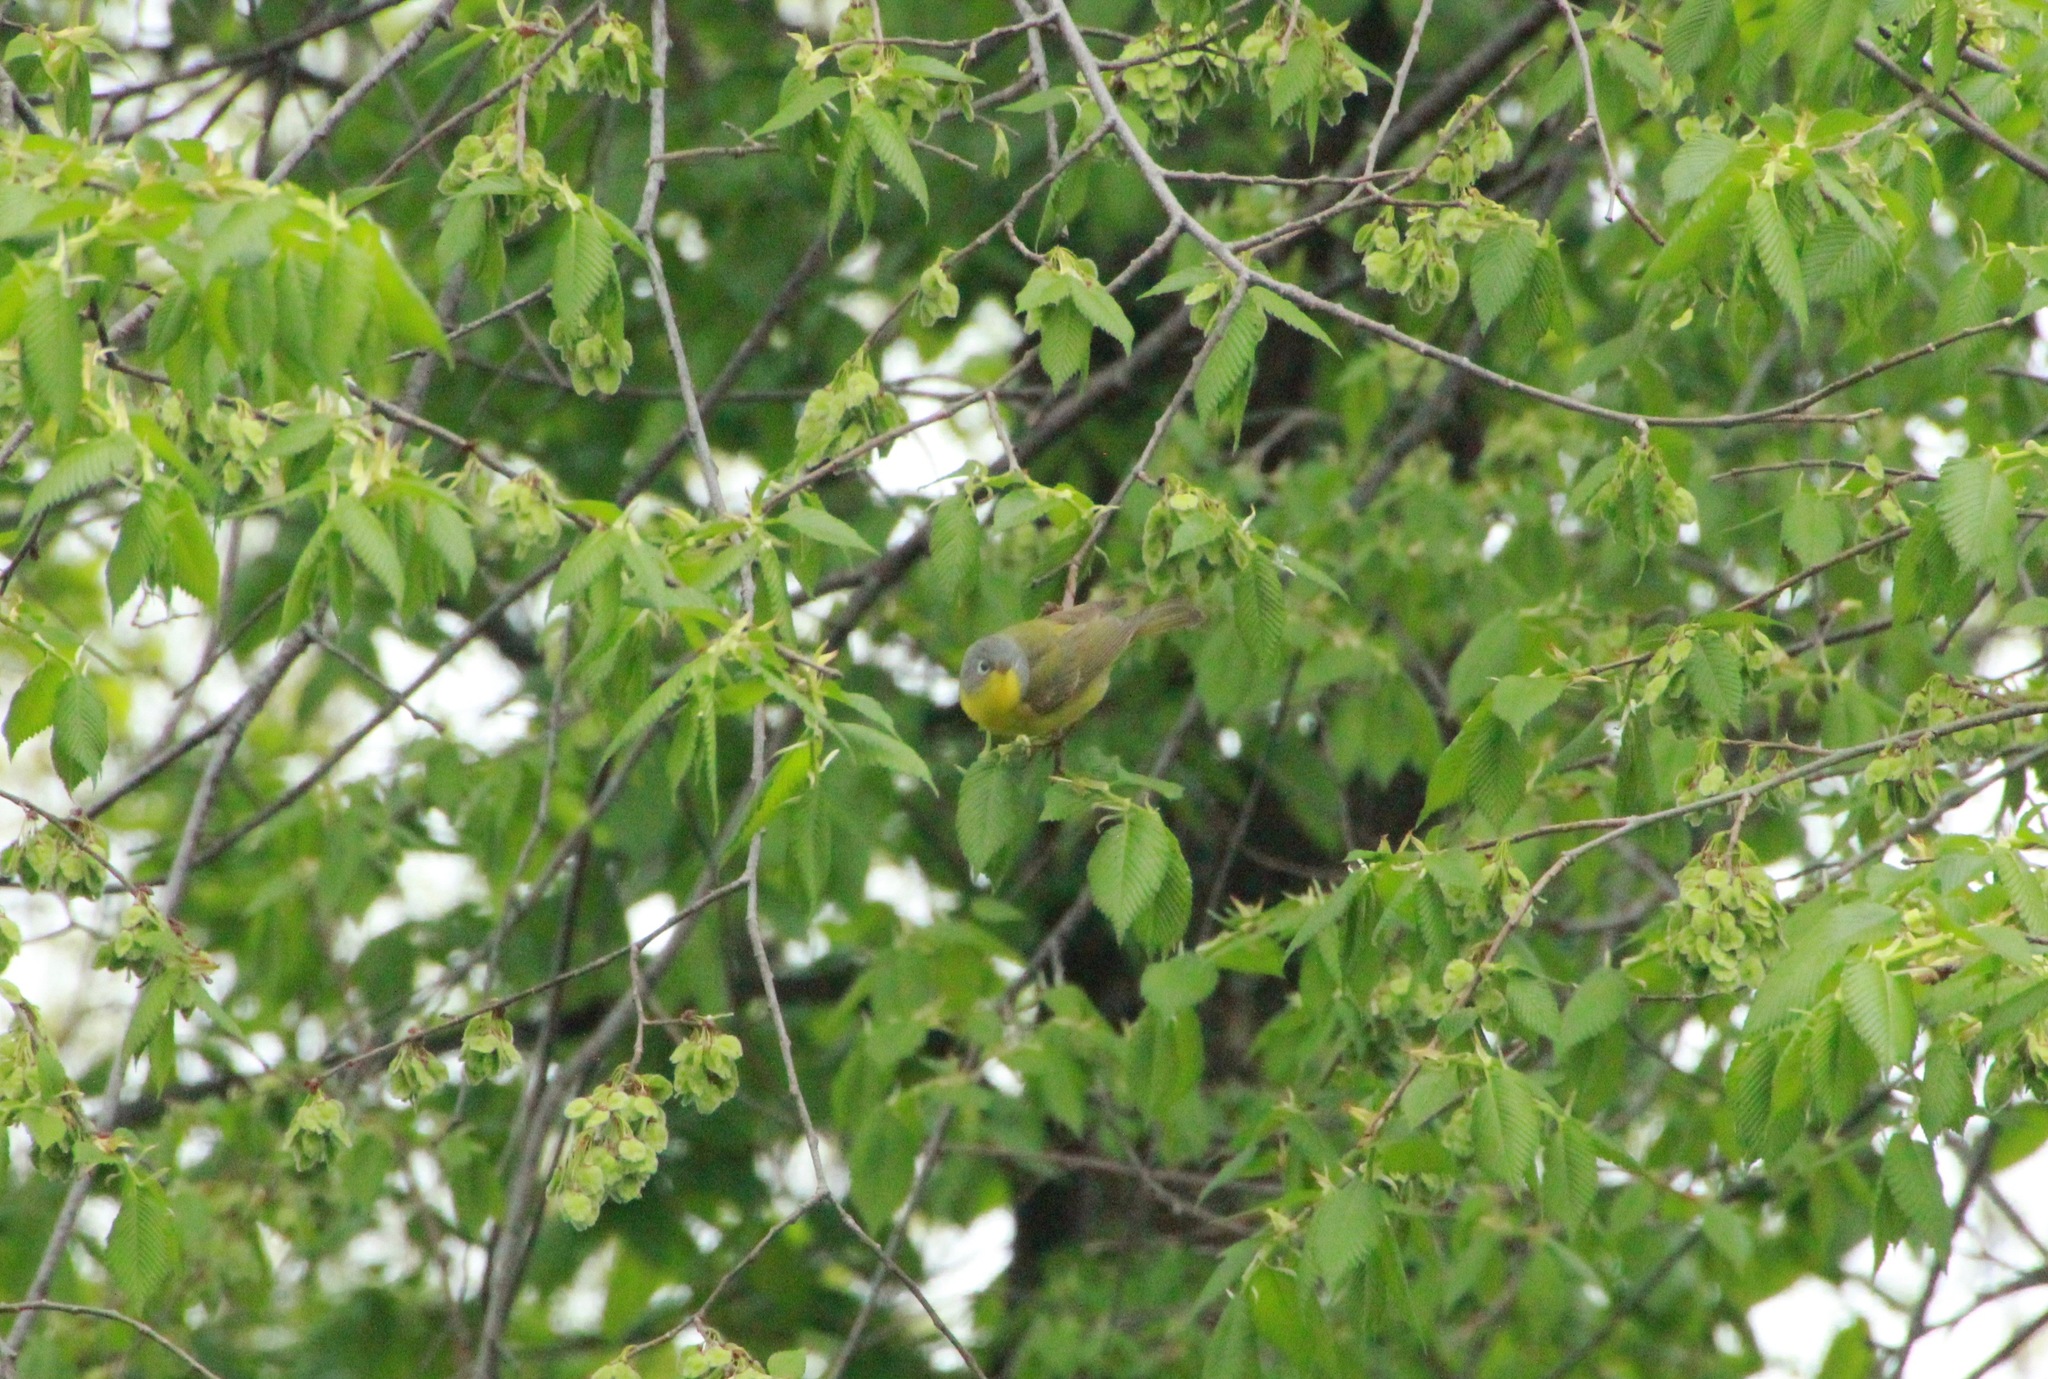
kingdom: Animalia
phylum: Chordata
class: Aves
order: Passeriformes
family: Parulidae
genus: Leiothlypis
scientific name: Leiothlypis ruficapilla
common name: Nashville warbler
